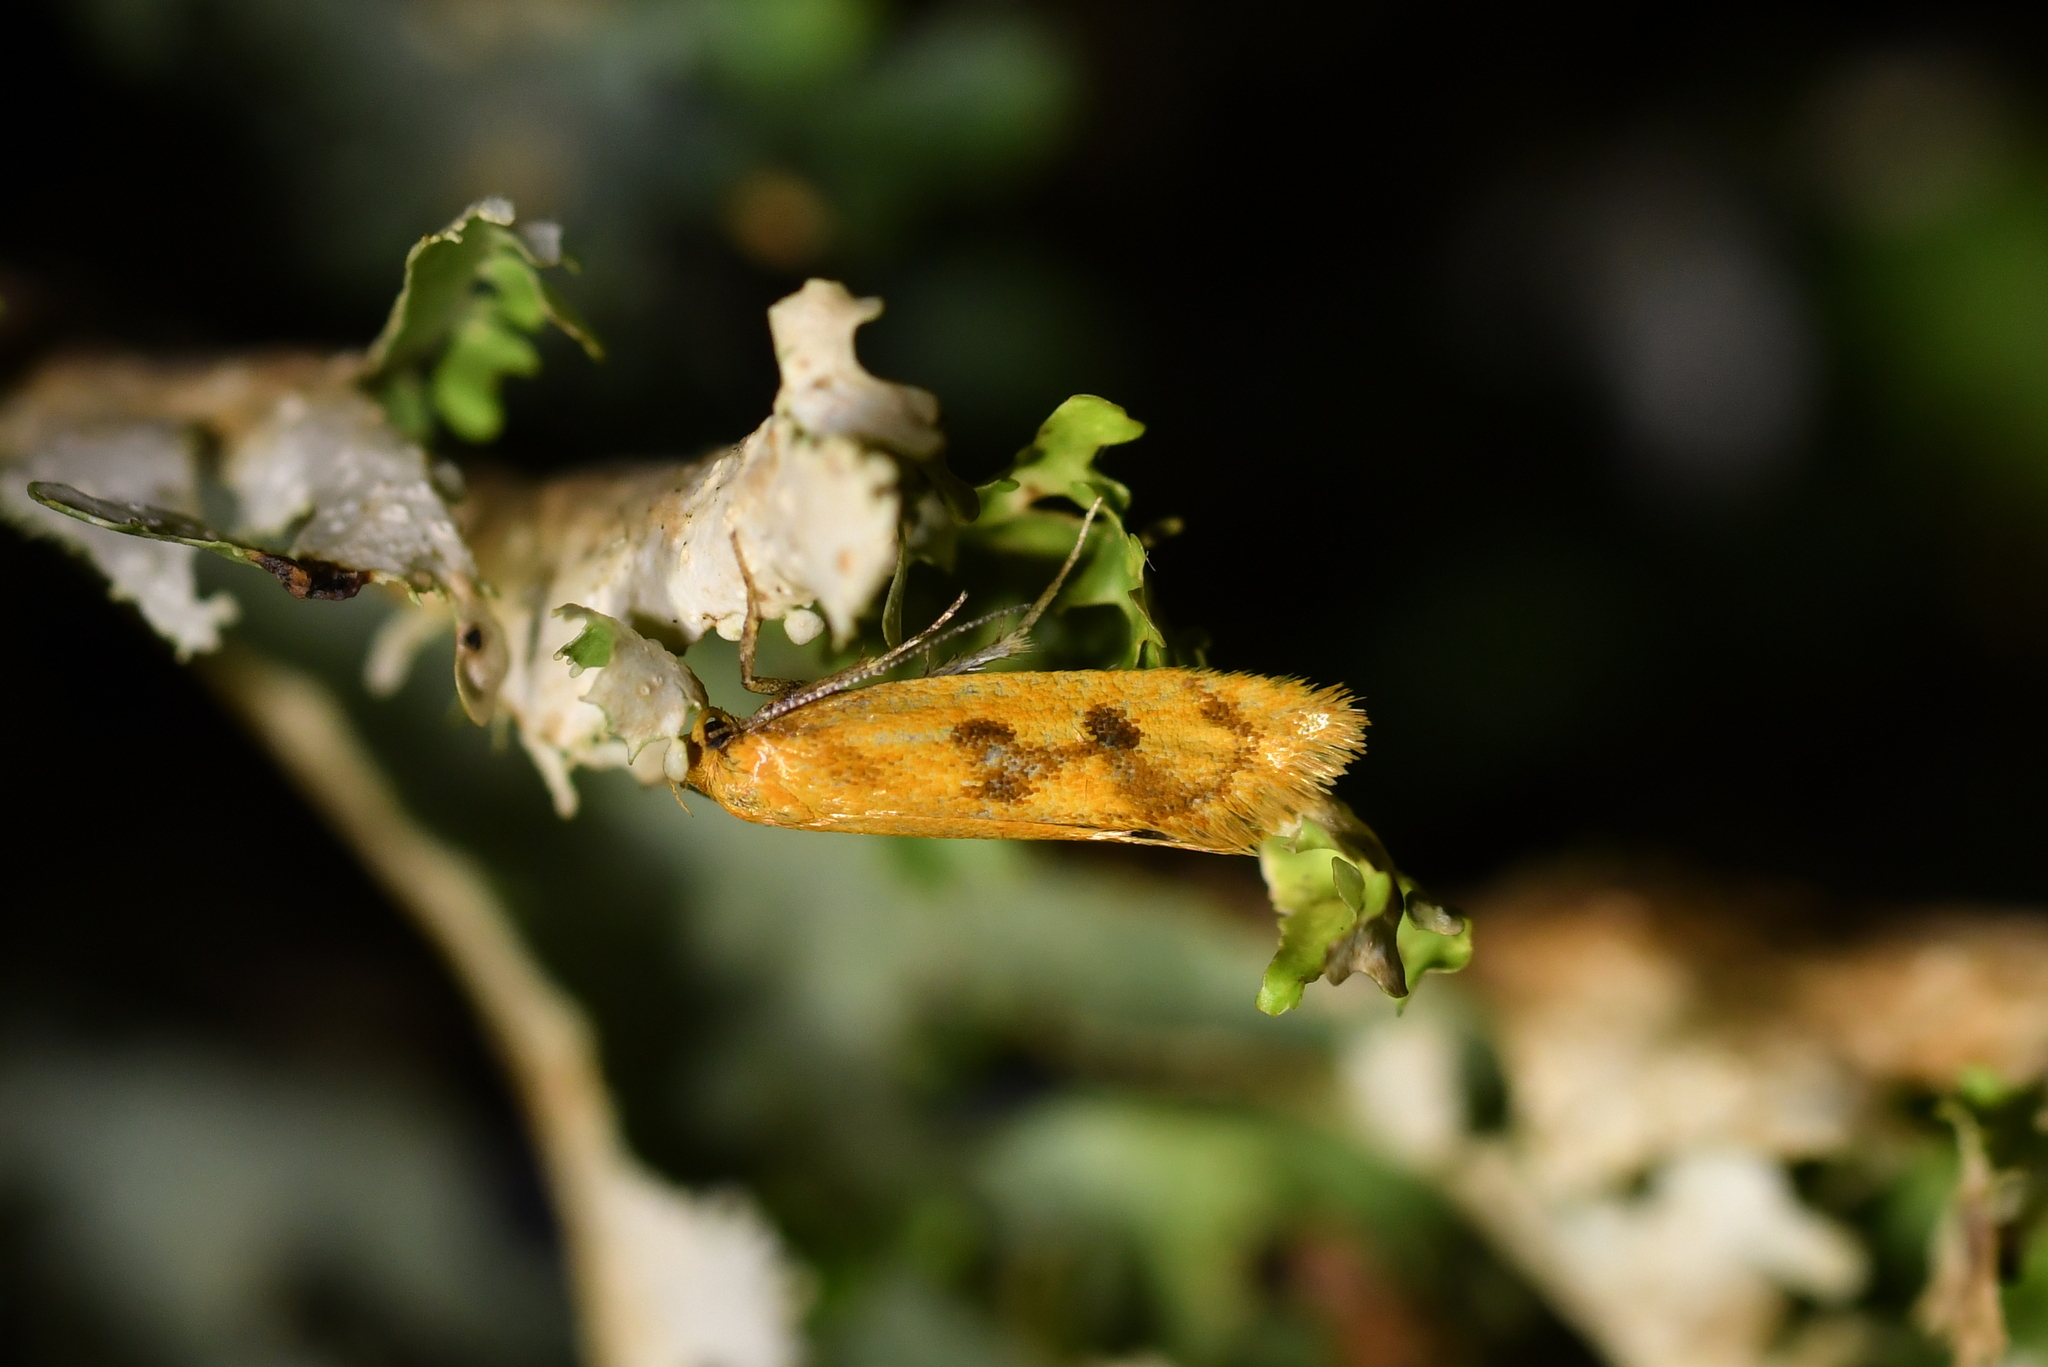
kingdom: Animalia
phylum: Arthropoda
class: Insecta
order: Lepidoptera
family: Oecophoridae
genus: Tingena
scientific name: Tingena ophiodryas
